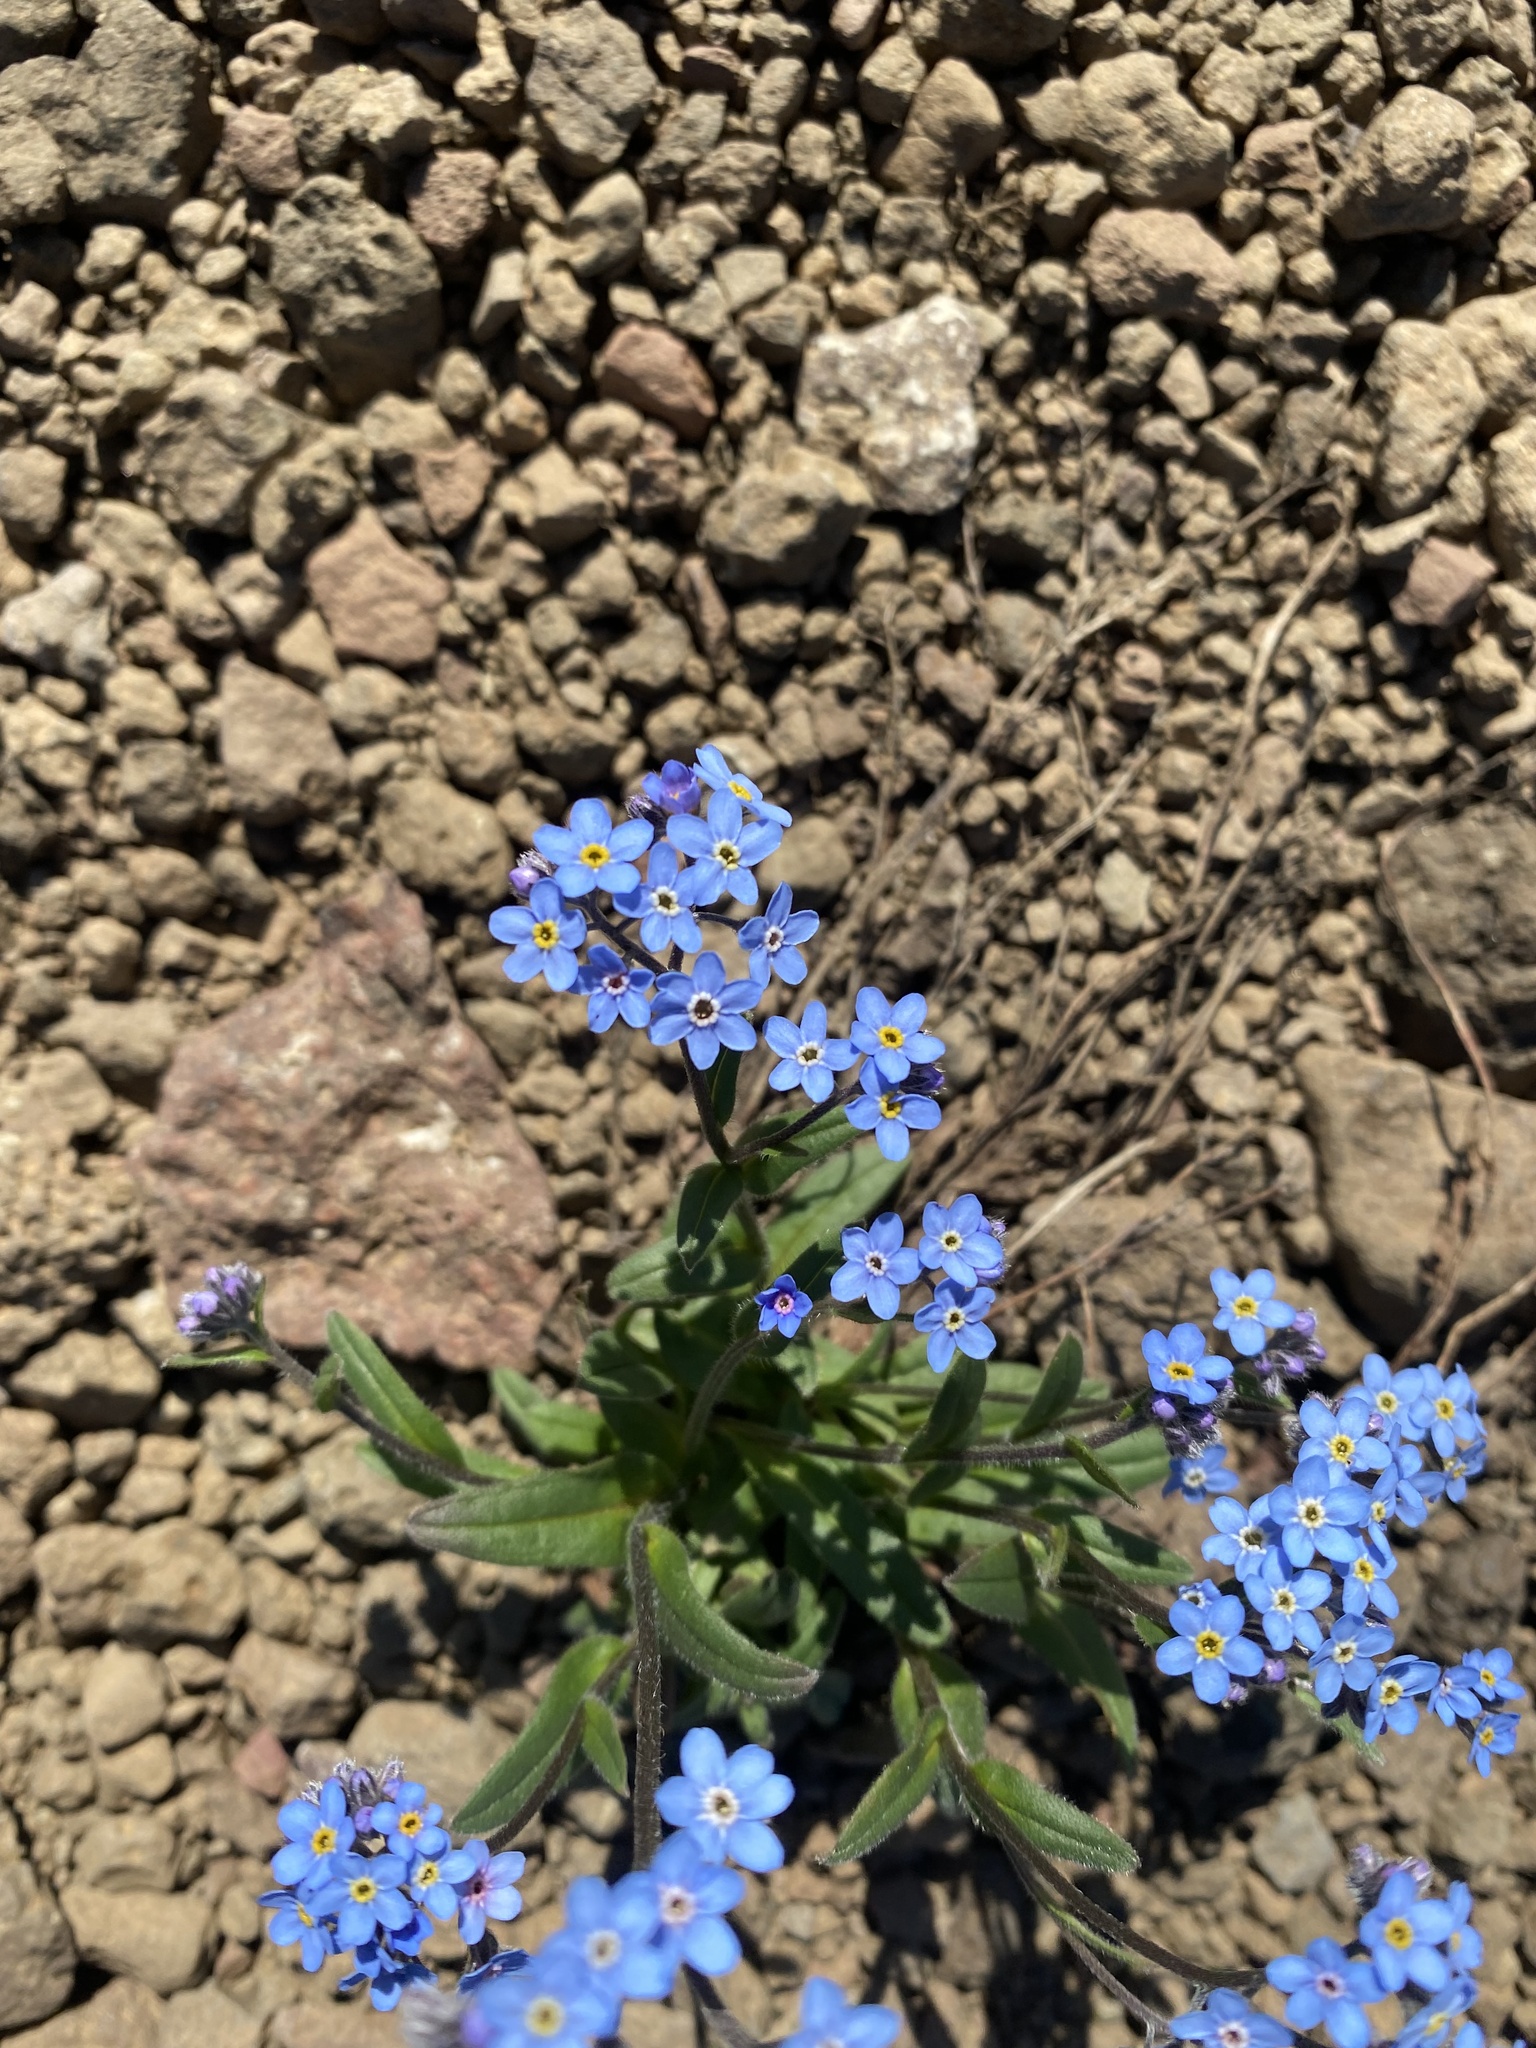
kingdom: Plantae
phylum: Tracheophyta
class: Magnoliopsida
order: Boraginales
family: Boraginaceae
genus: Myosotis
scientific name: Myosotis asiatica
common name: Asian forget-me-not
